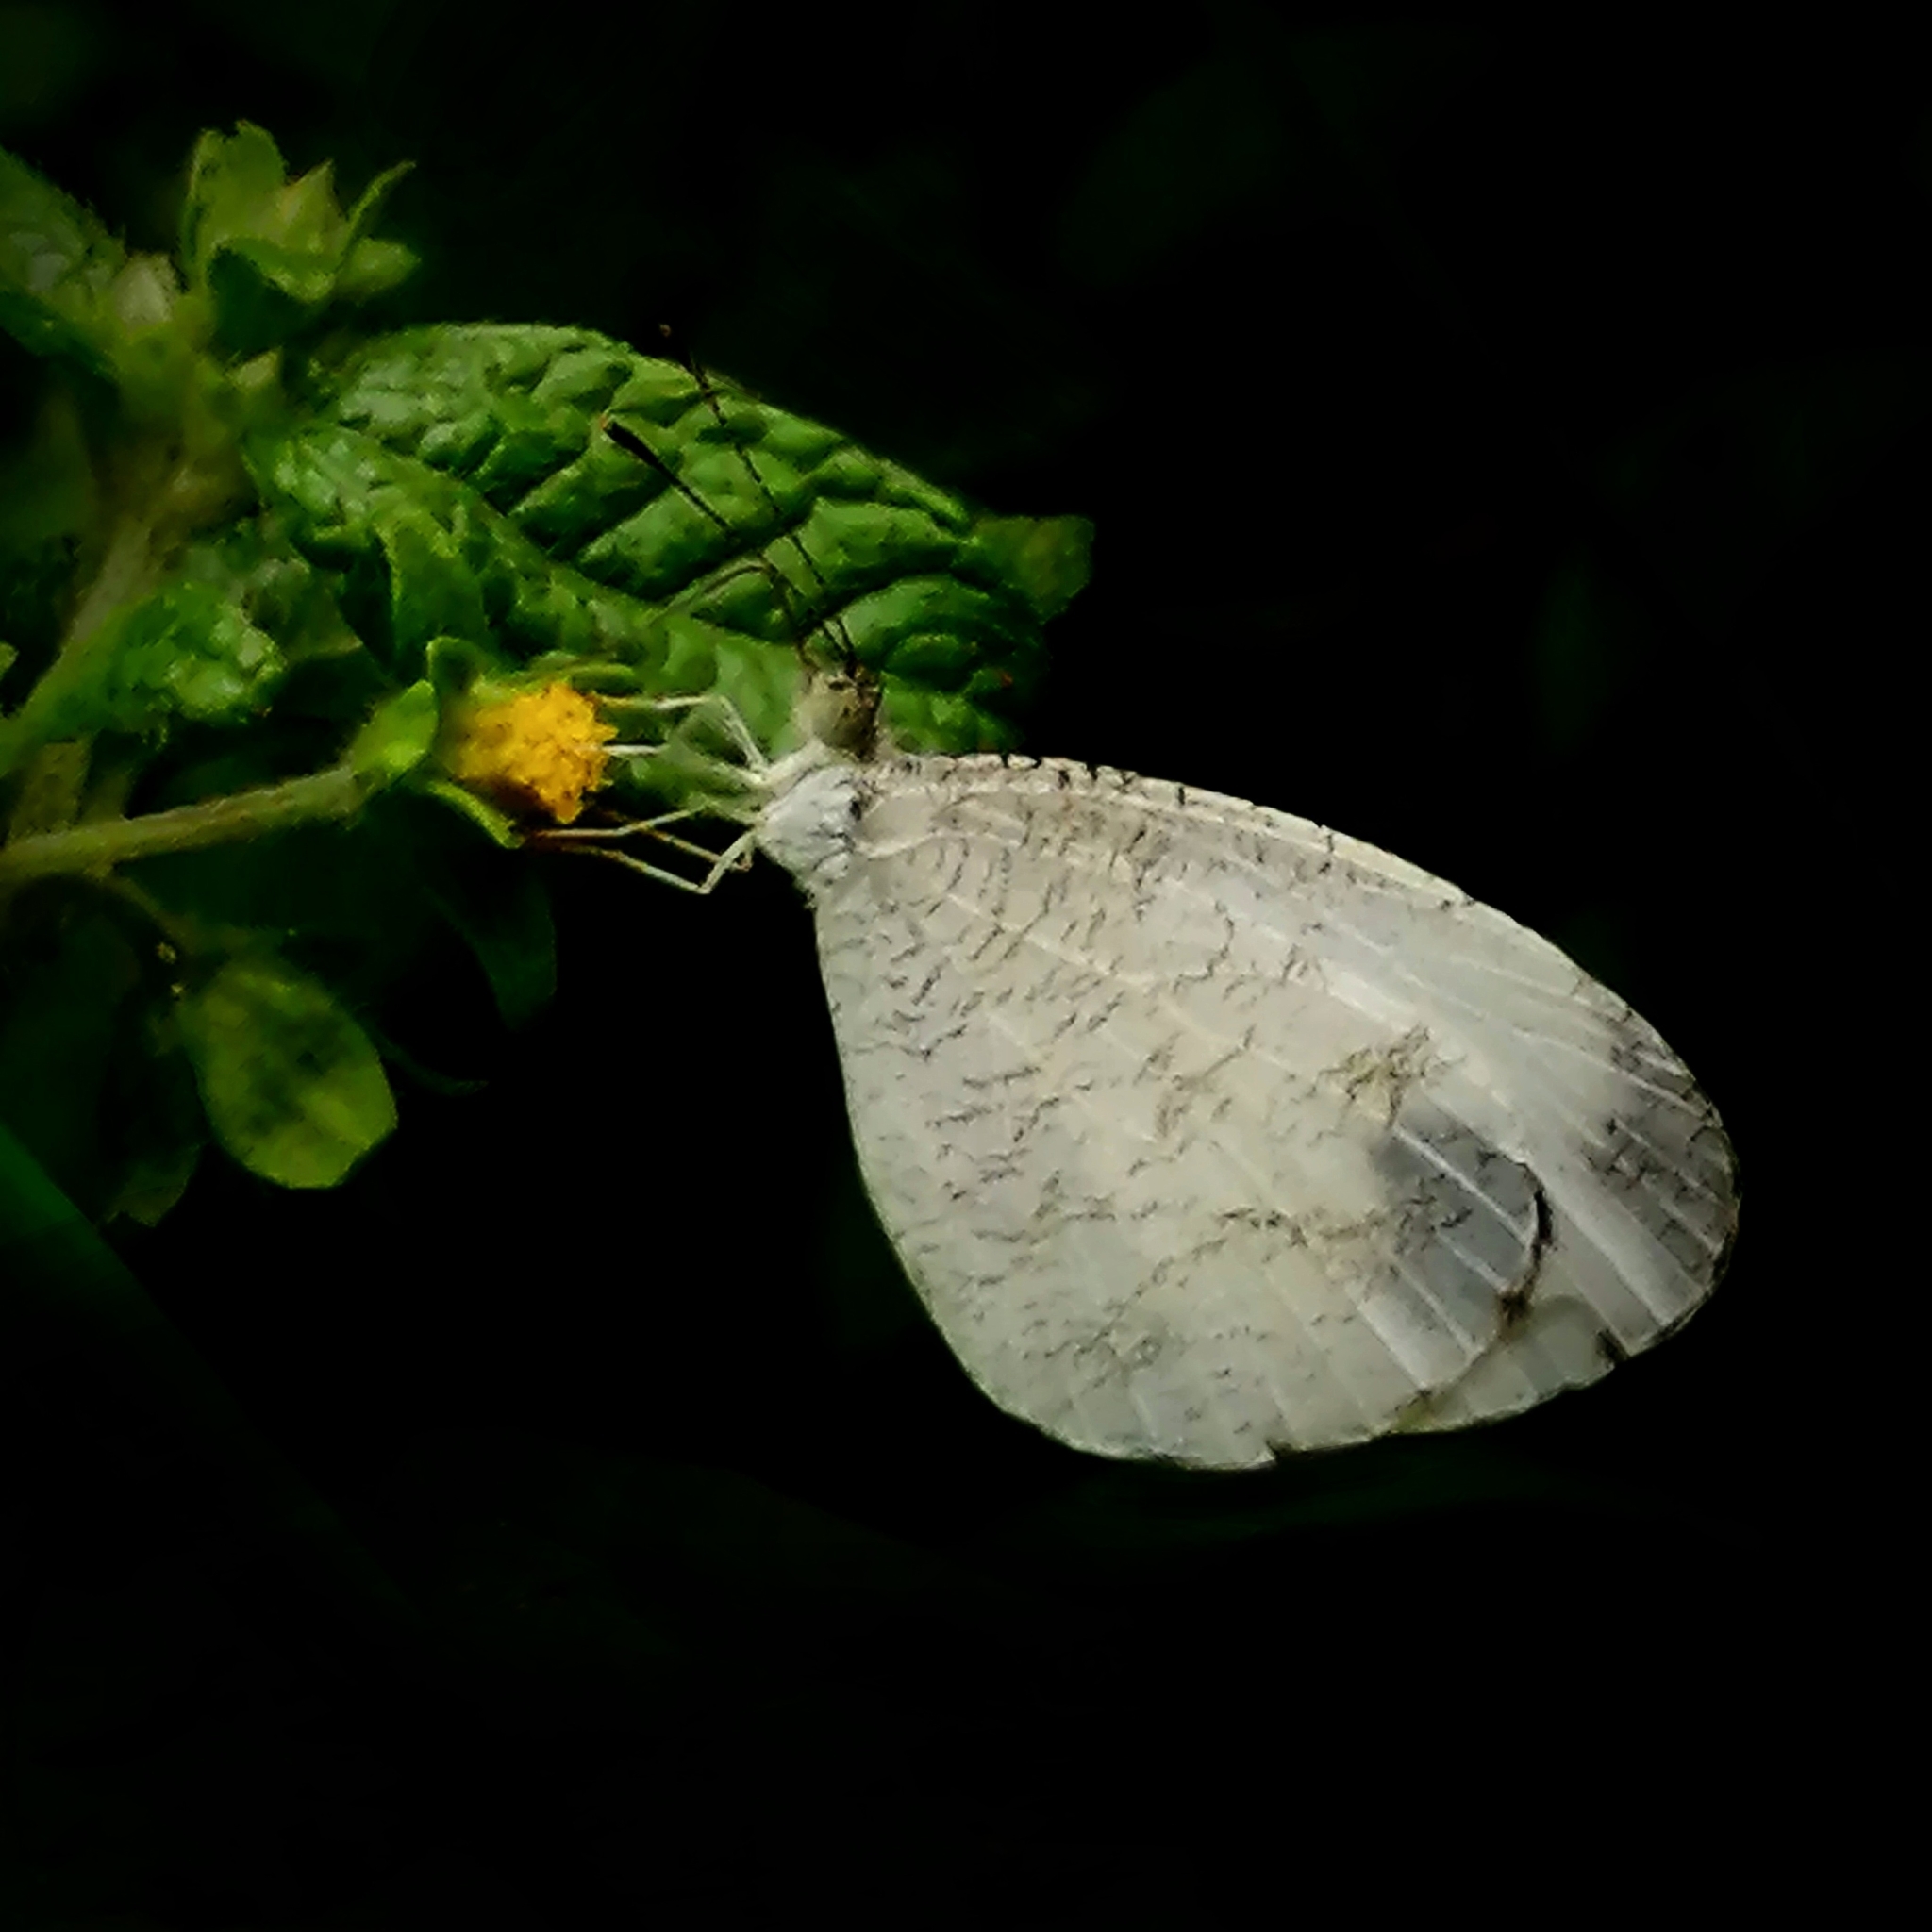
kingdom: Animalia
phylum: Arthropoda
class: Insecta
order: Lepidoptera
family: Pieridae
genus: Leptosia
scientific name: Leptosia nina
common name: Psyche
